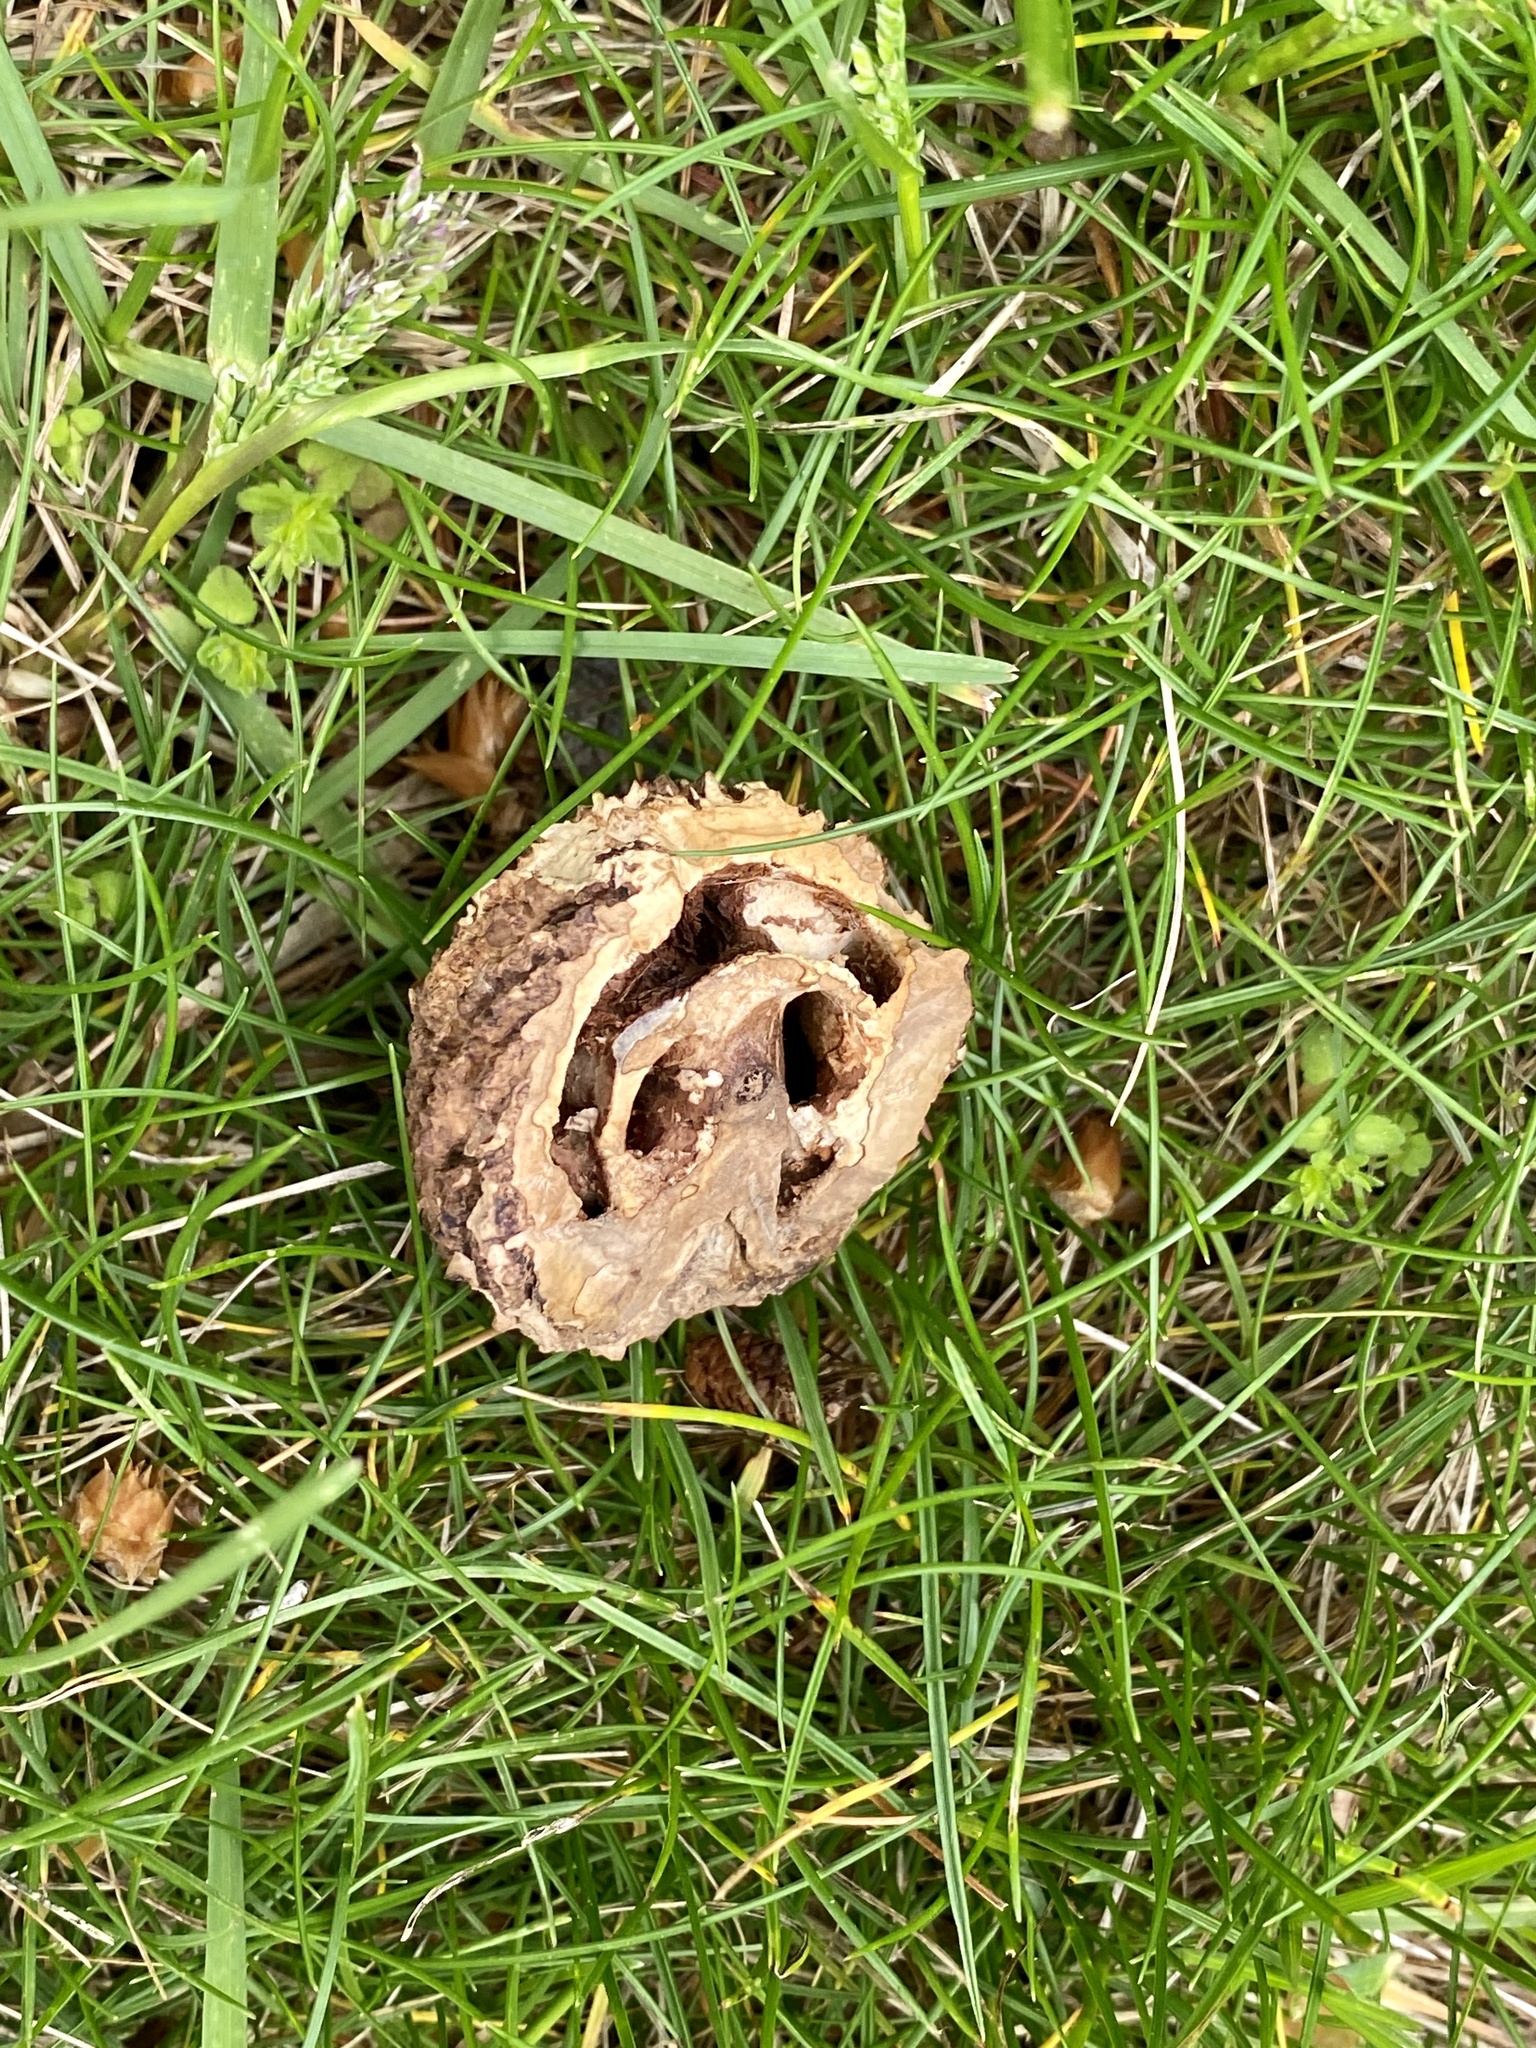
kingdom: Plantae
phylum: Tracheophyta
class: Magnoliopsida
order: Fagales
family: Juglandaceae
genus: Juglans
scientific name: Juglans nigra
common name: Black walnut
